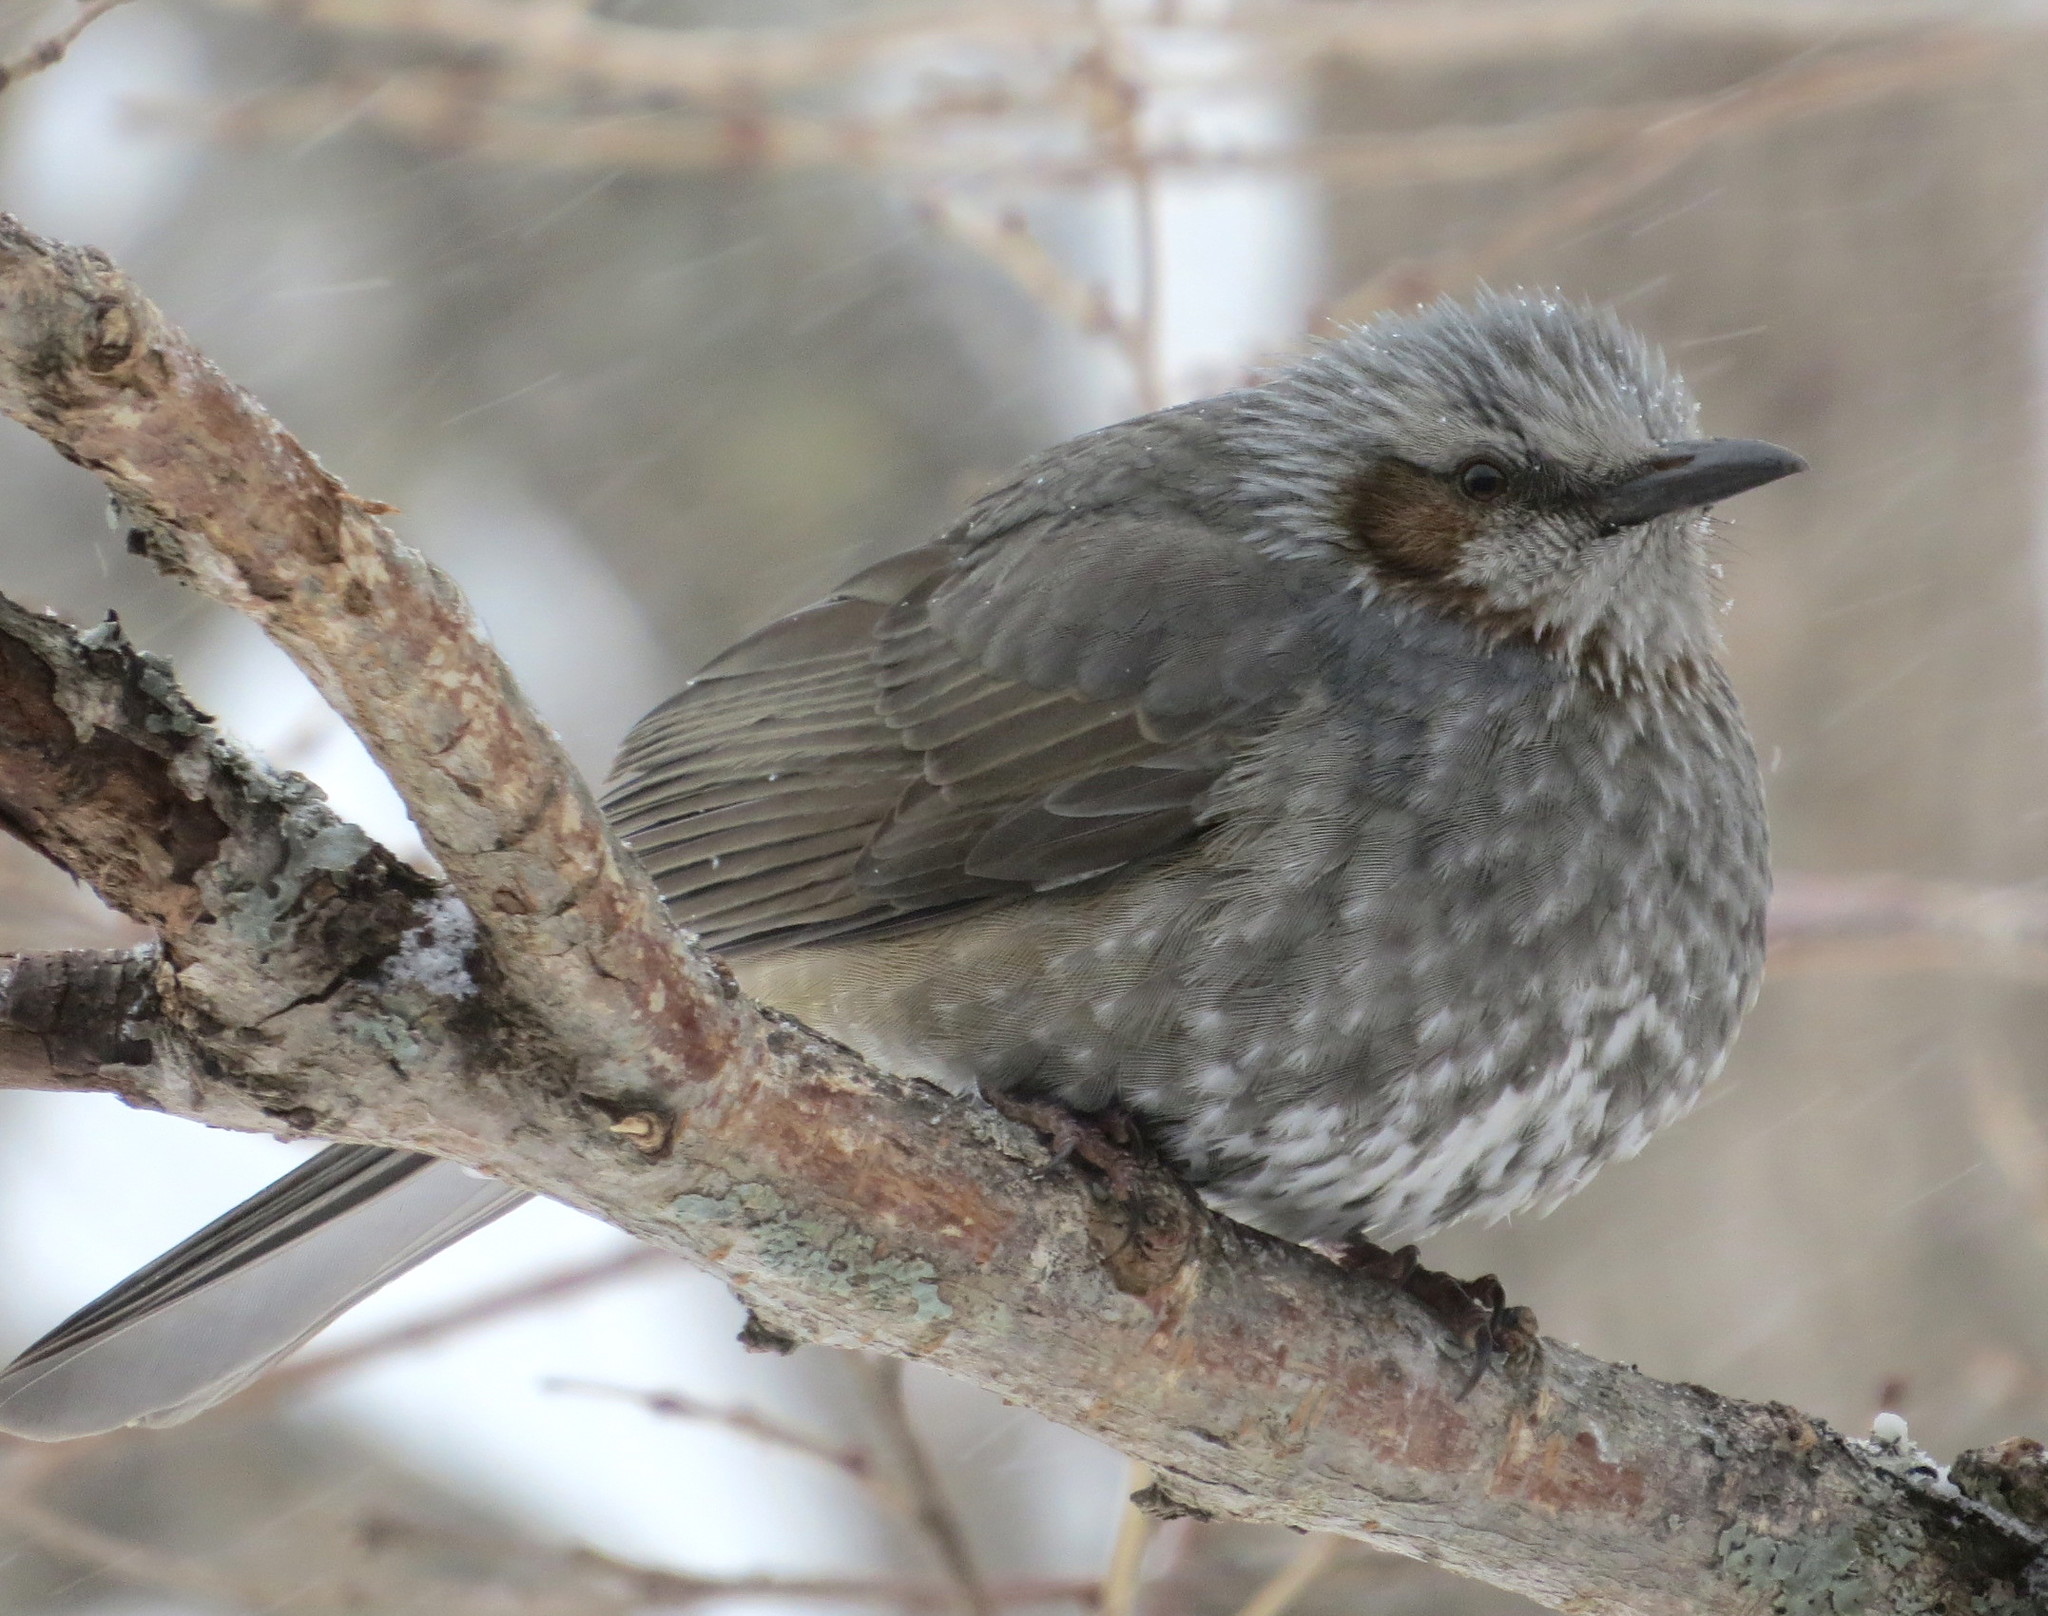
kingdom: Animalia
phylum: Chordata
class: Aves
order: Passeriformes
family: Pycnonotidae
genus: Hypsipetes
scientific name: Hypsipetes amaurotis
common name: Brown-eared bulbul
